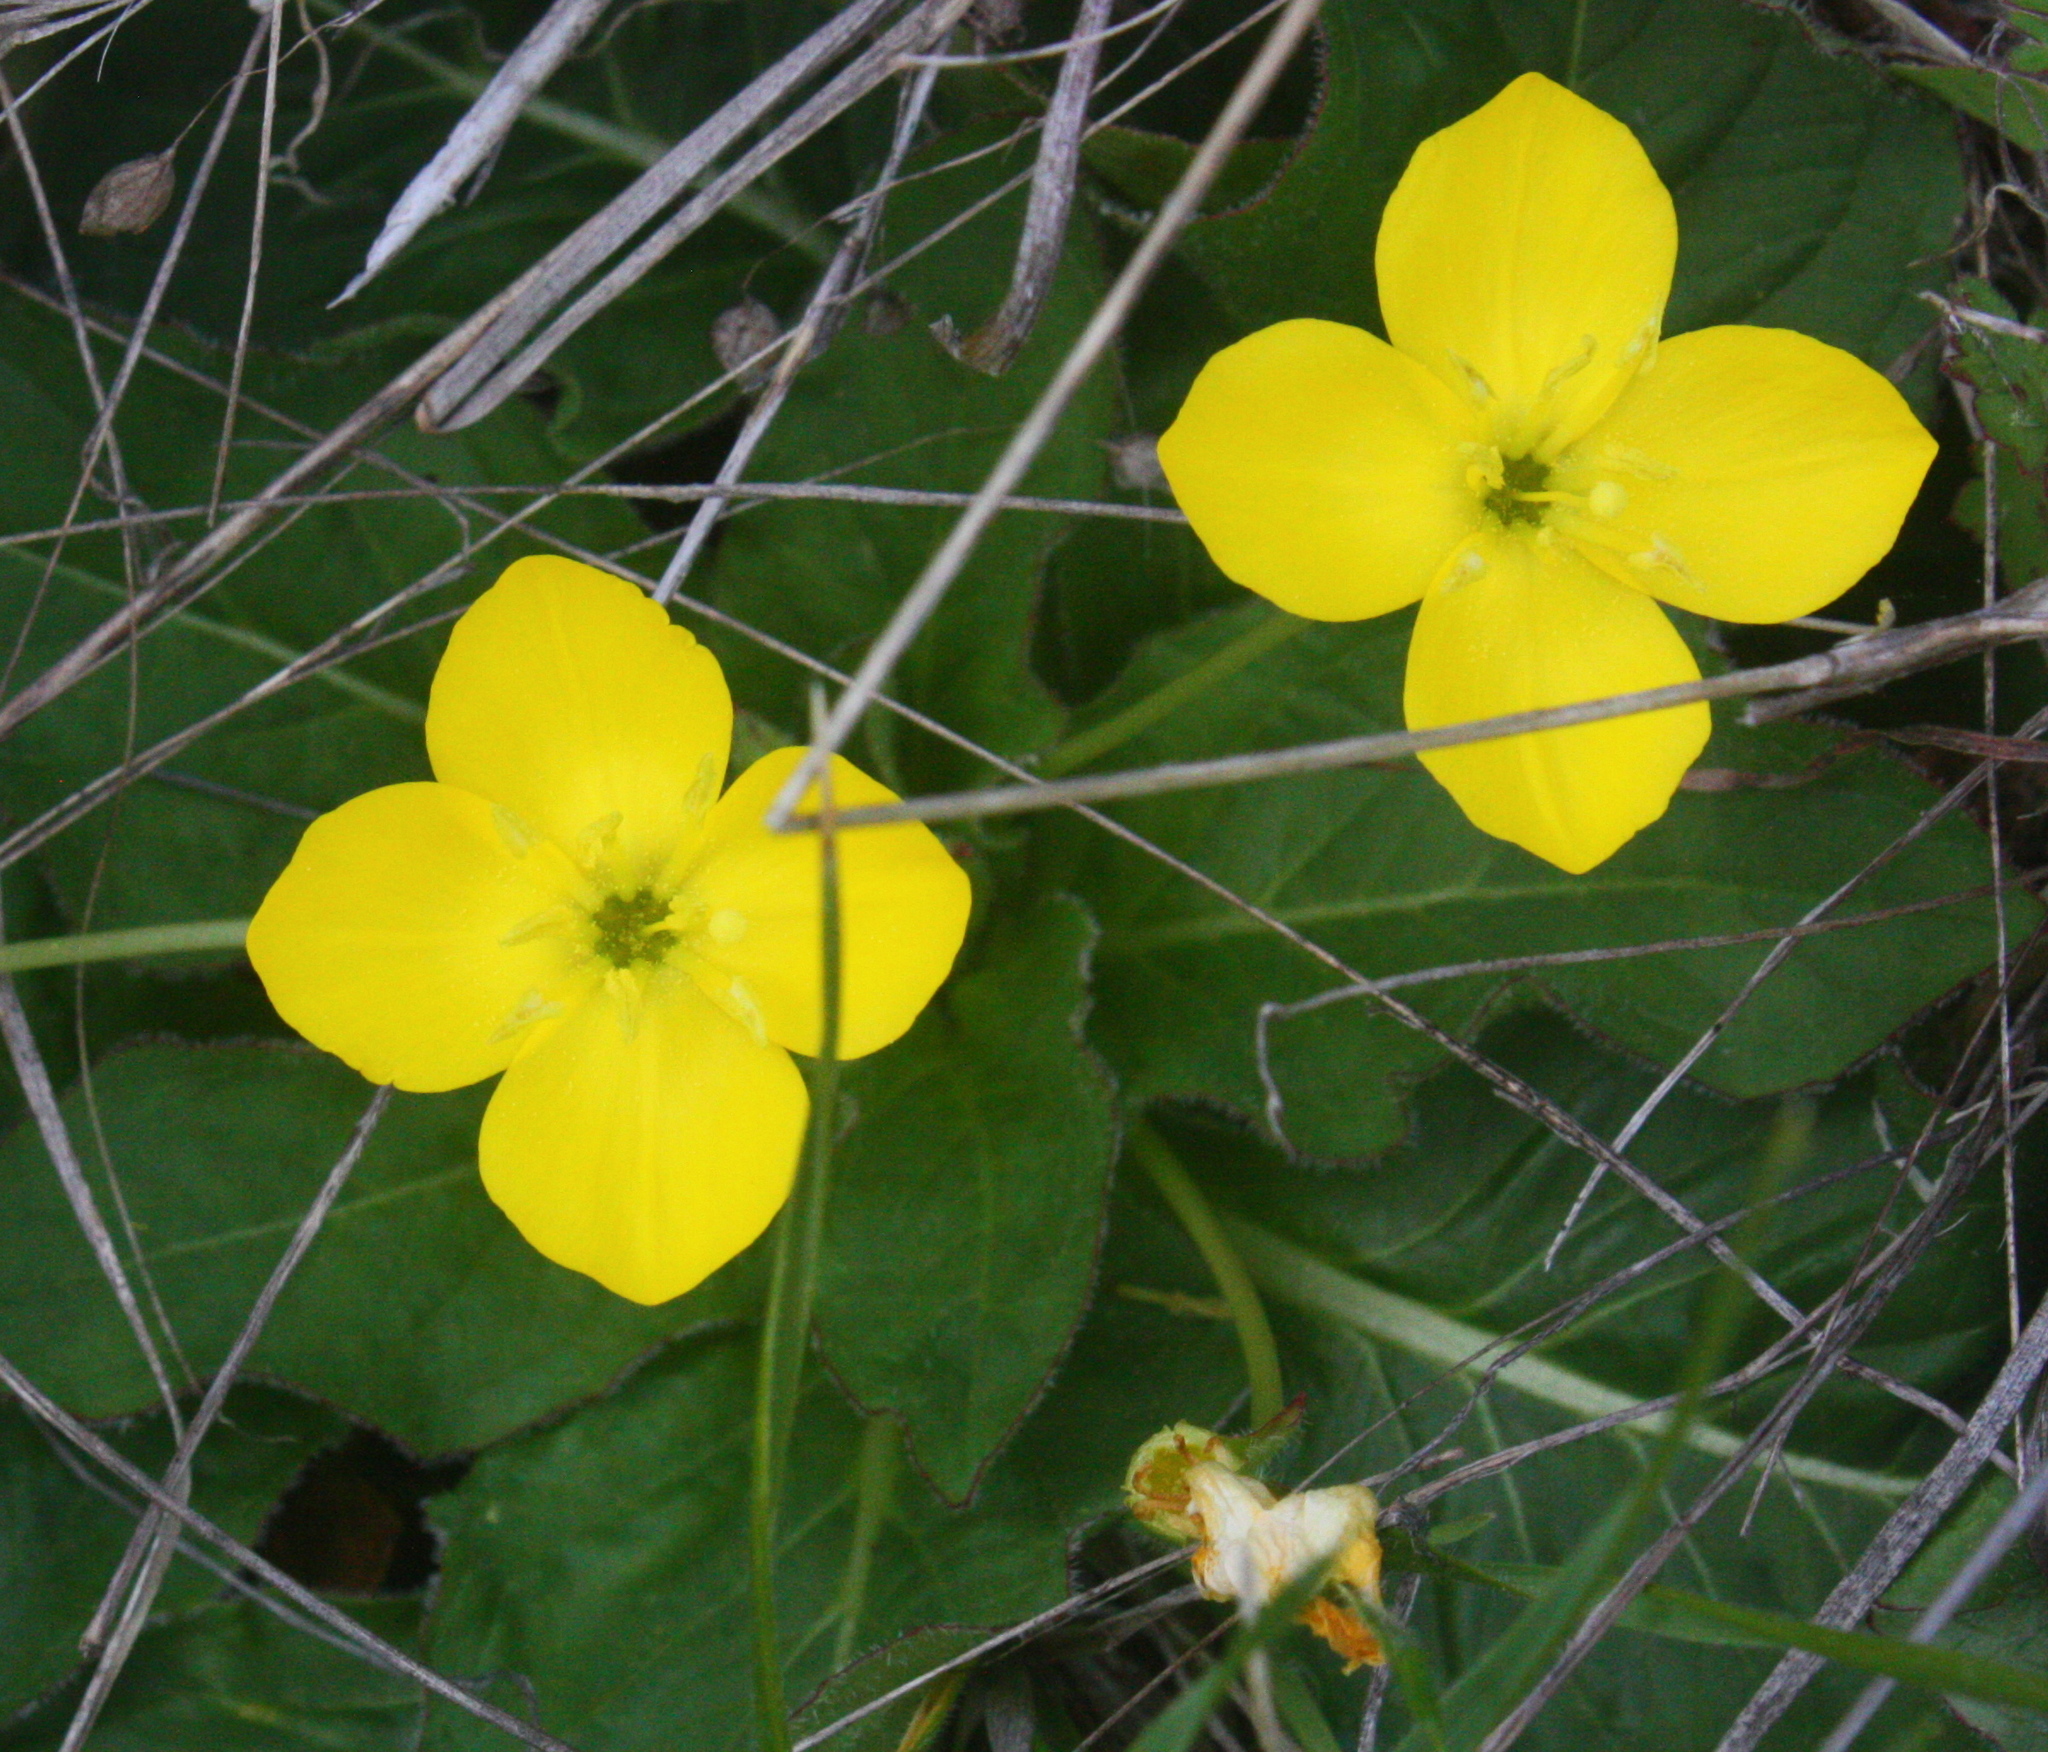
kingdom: Plantae
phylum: Tracheophyta
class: Magnoliopsida
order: Myrtales
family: Onagraceae
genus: Taraxia
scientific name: Taraxia ovata
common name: Goldeneggs
